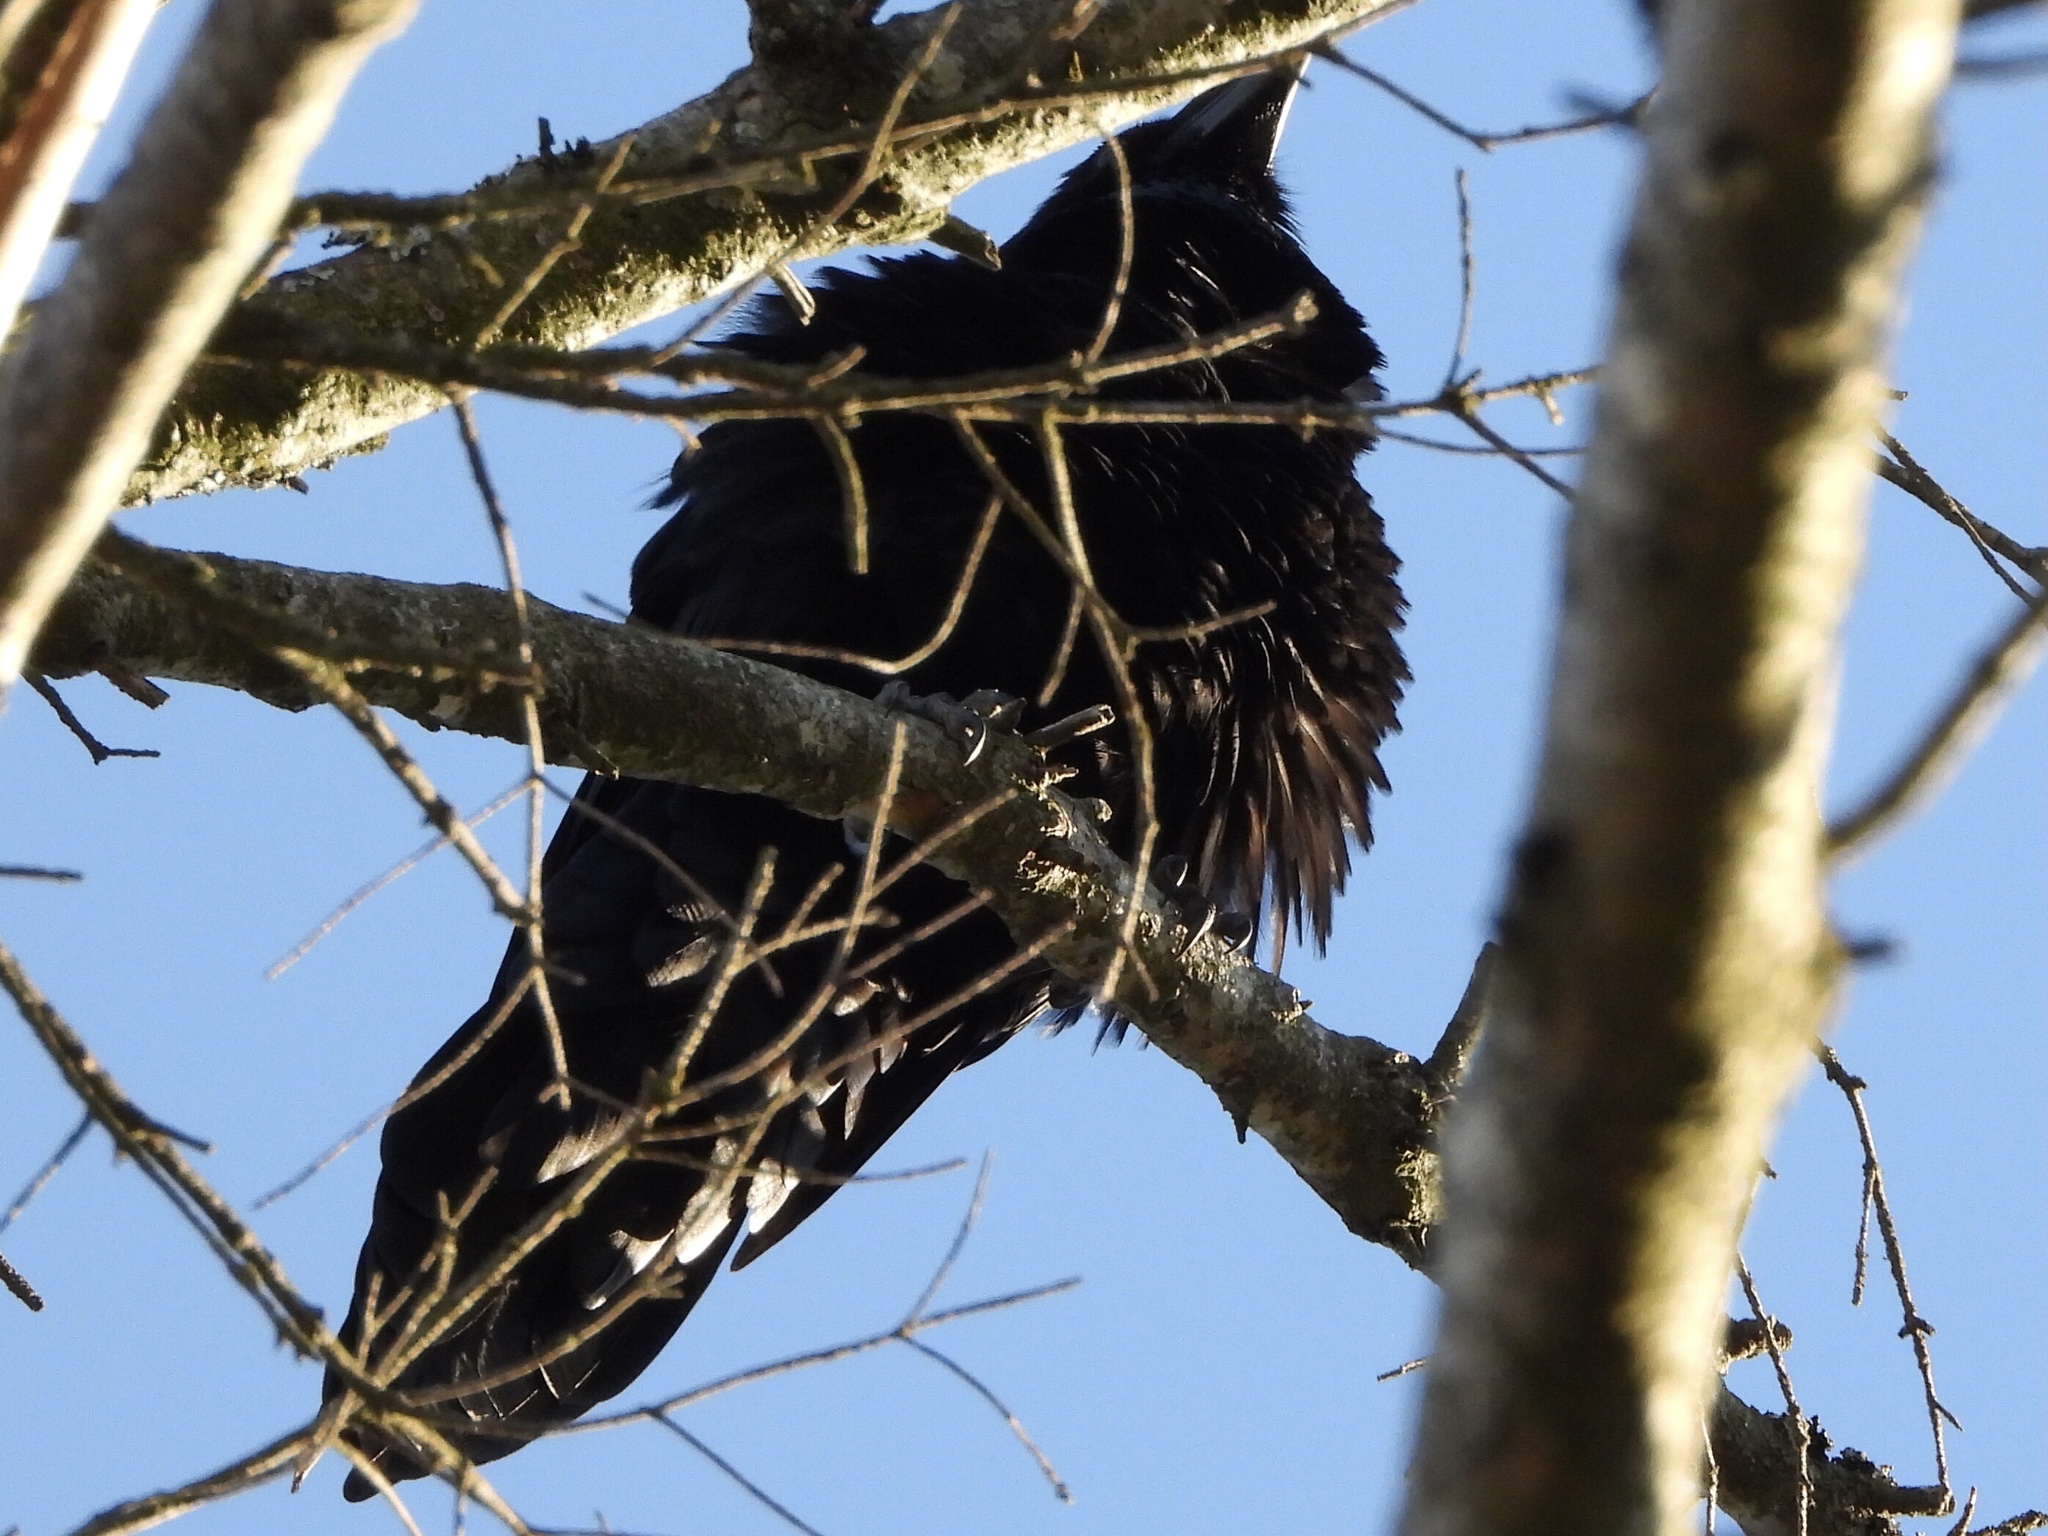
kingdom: Animalia
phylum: Chordata
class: Aves
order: Passeriformes
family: Corvidae
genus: Corvus
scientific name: Corvus corax
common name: Common raven
